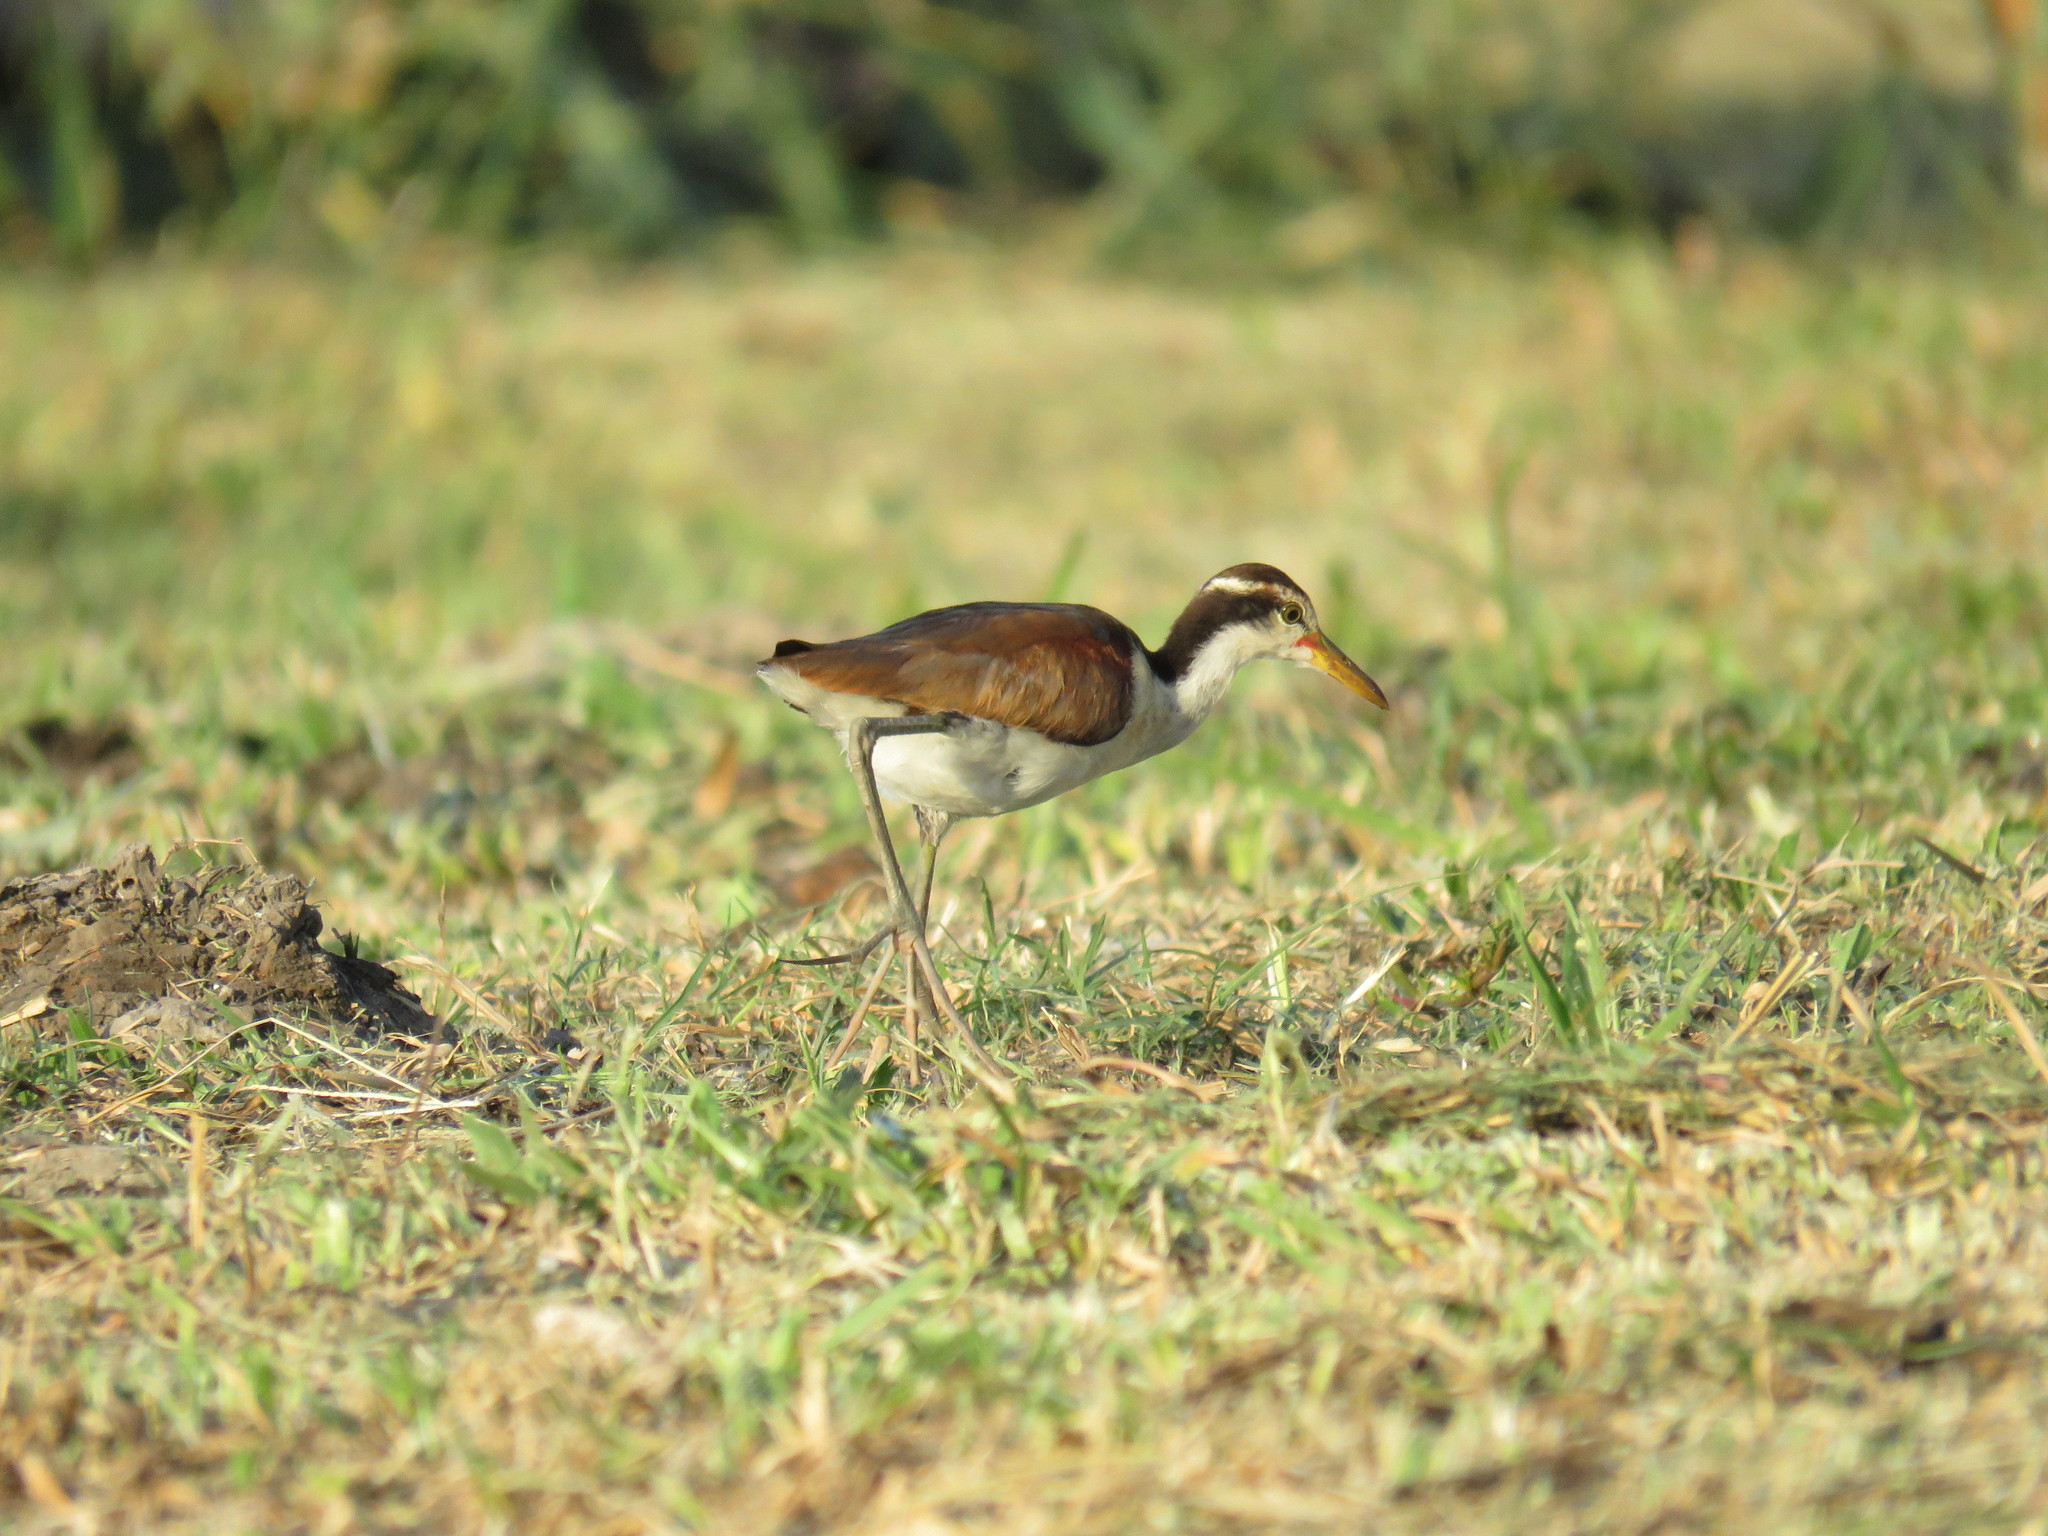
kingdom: Animalia
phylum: Chordata
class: Aves
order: Charadriiformes
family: Jacanidae
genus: Jacana
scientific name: Jacana jacana
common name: Wattled jacana
